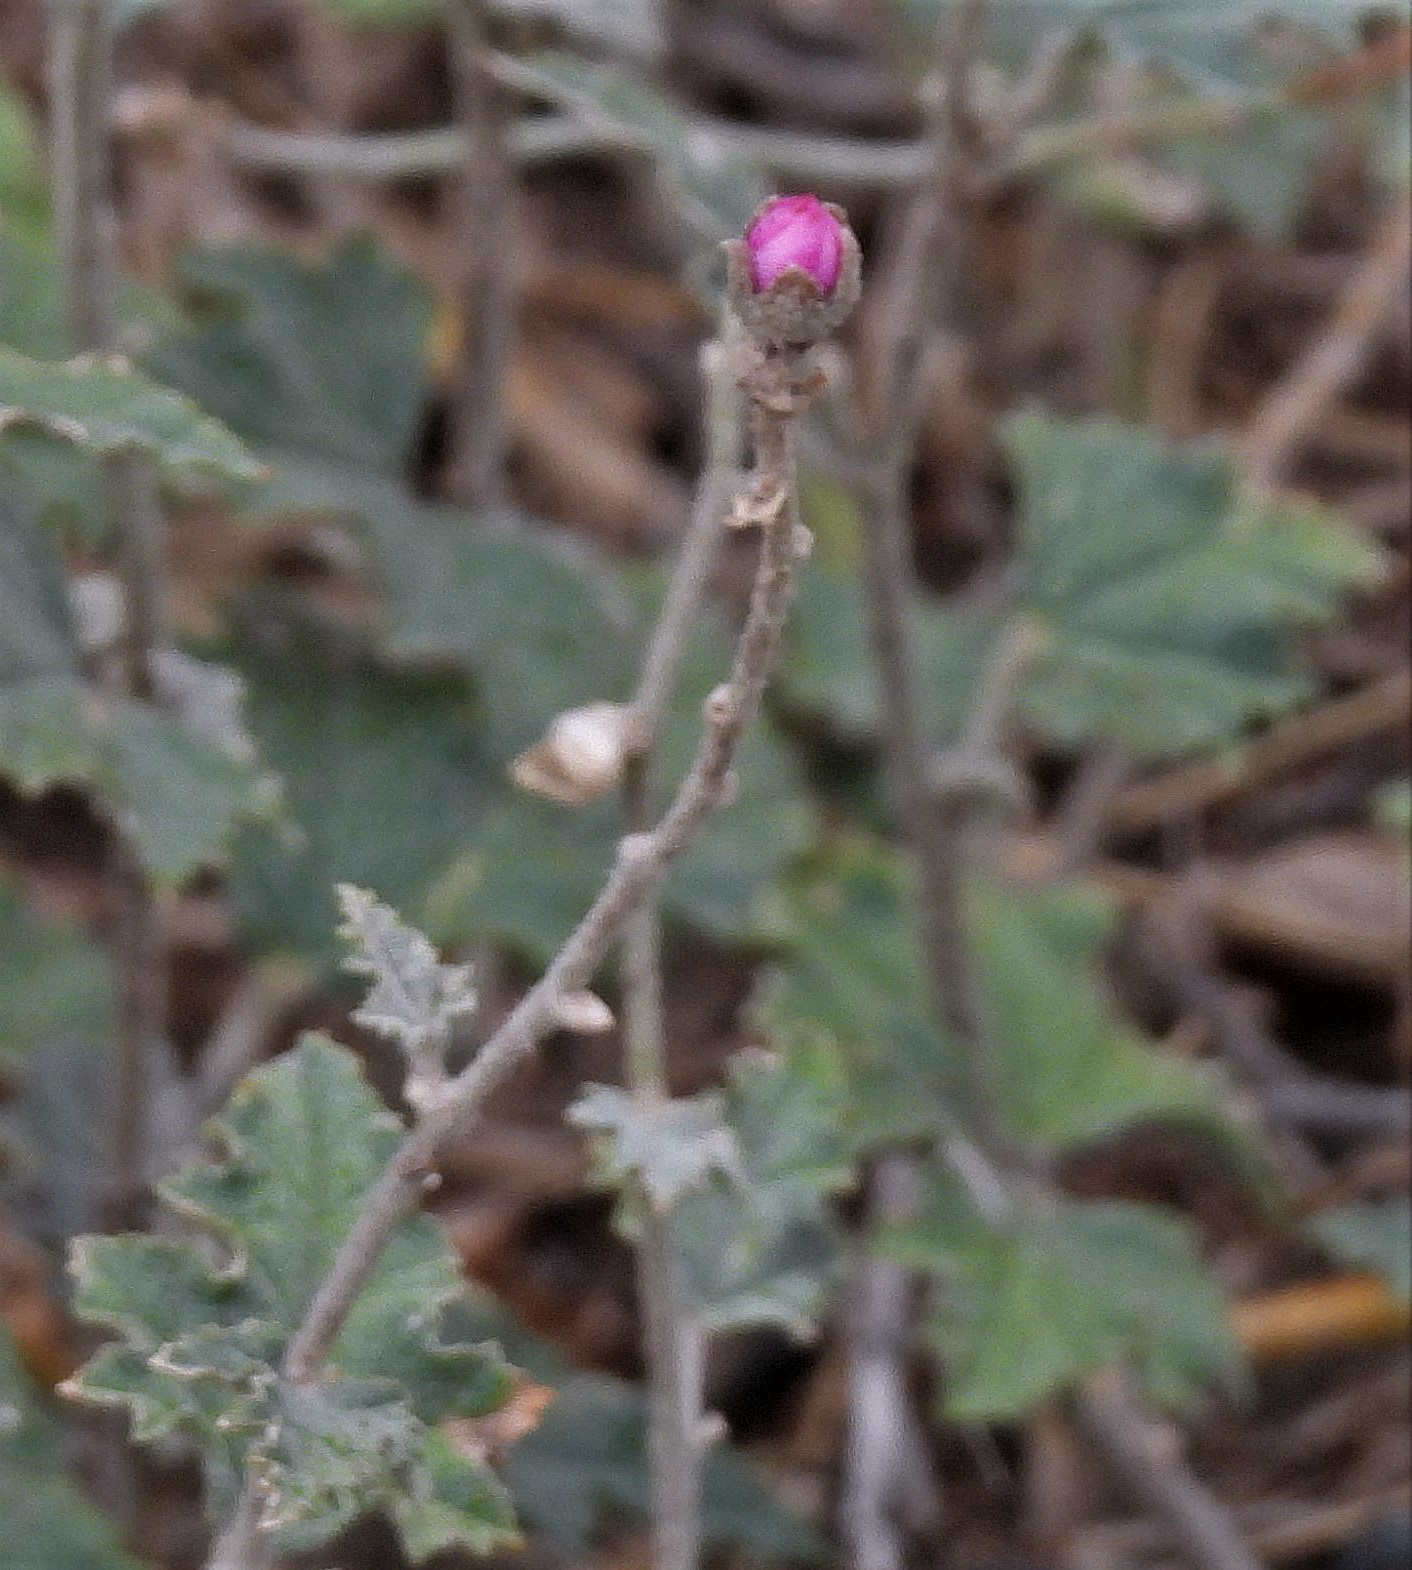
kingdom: Plantae
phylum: Tracheophyta
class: Magnoliopsida
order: Malvales
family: Malvaceae
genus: Sphaeralcea
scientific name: Sphaeralcea mendocina
